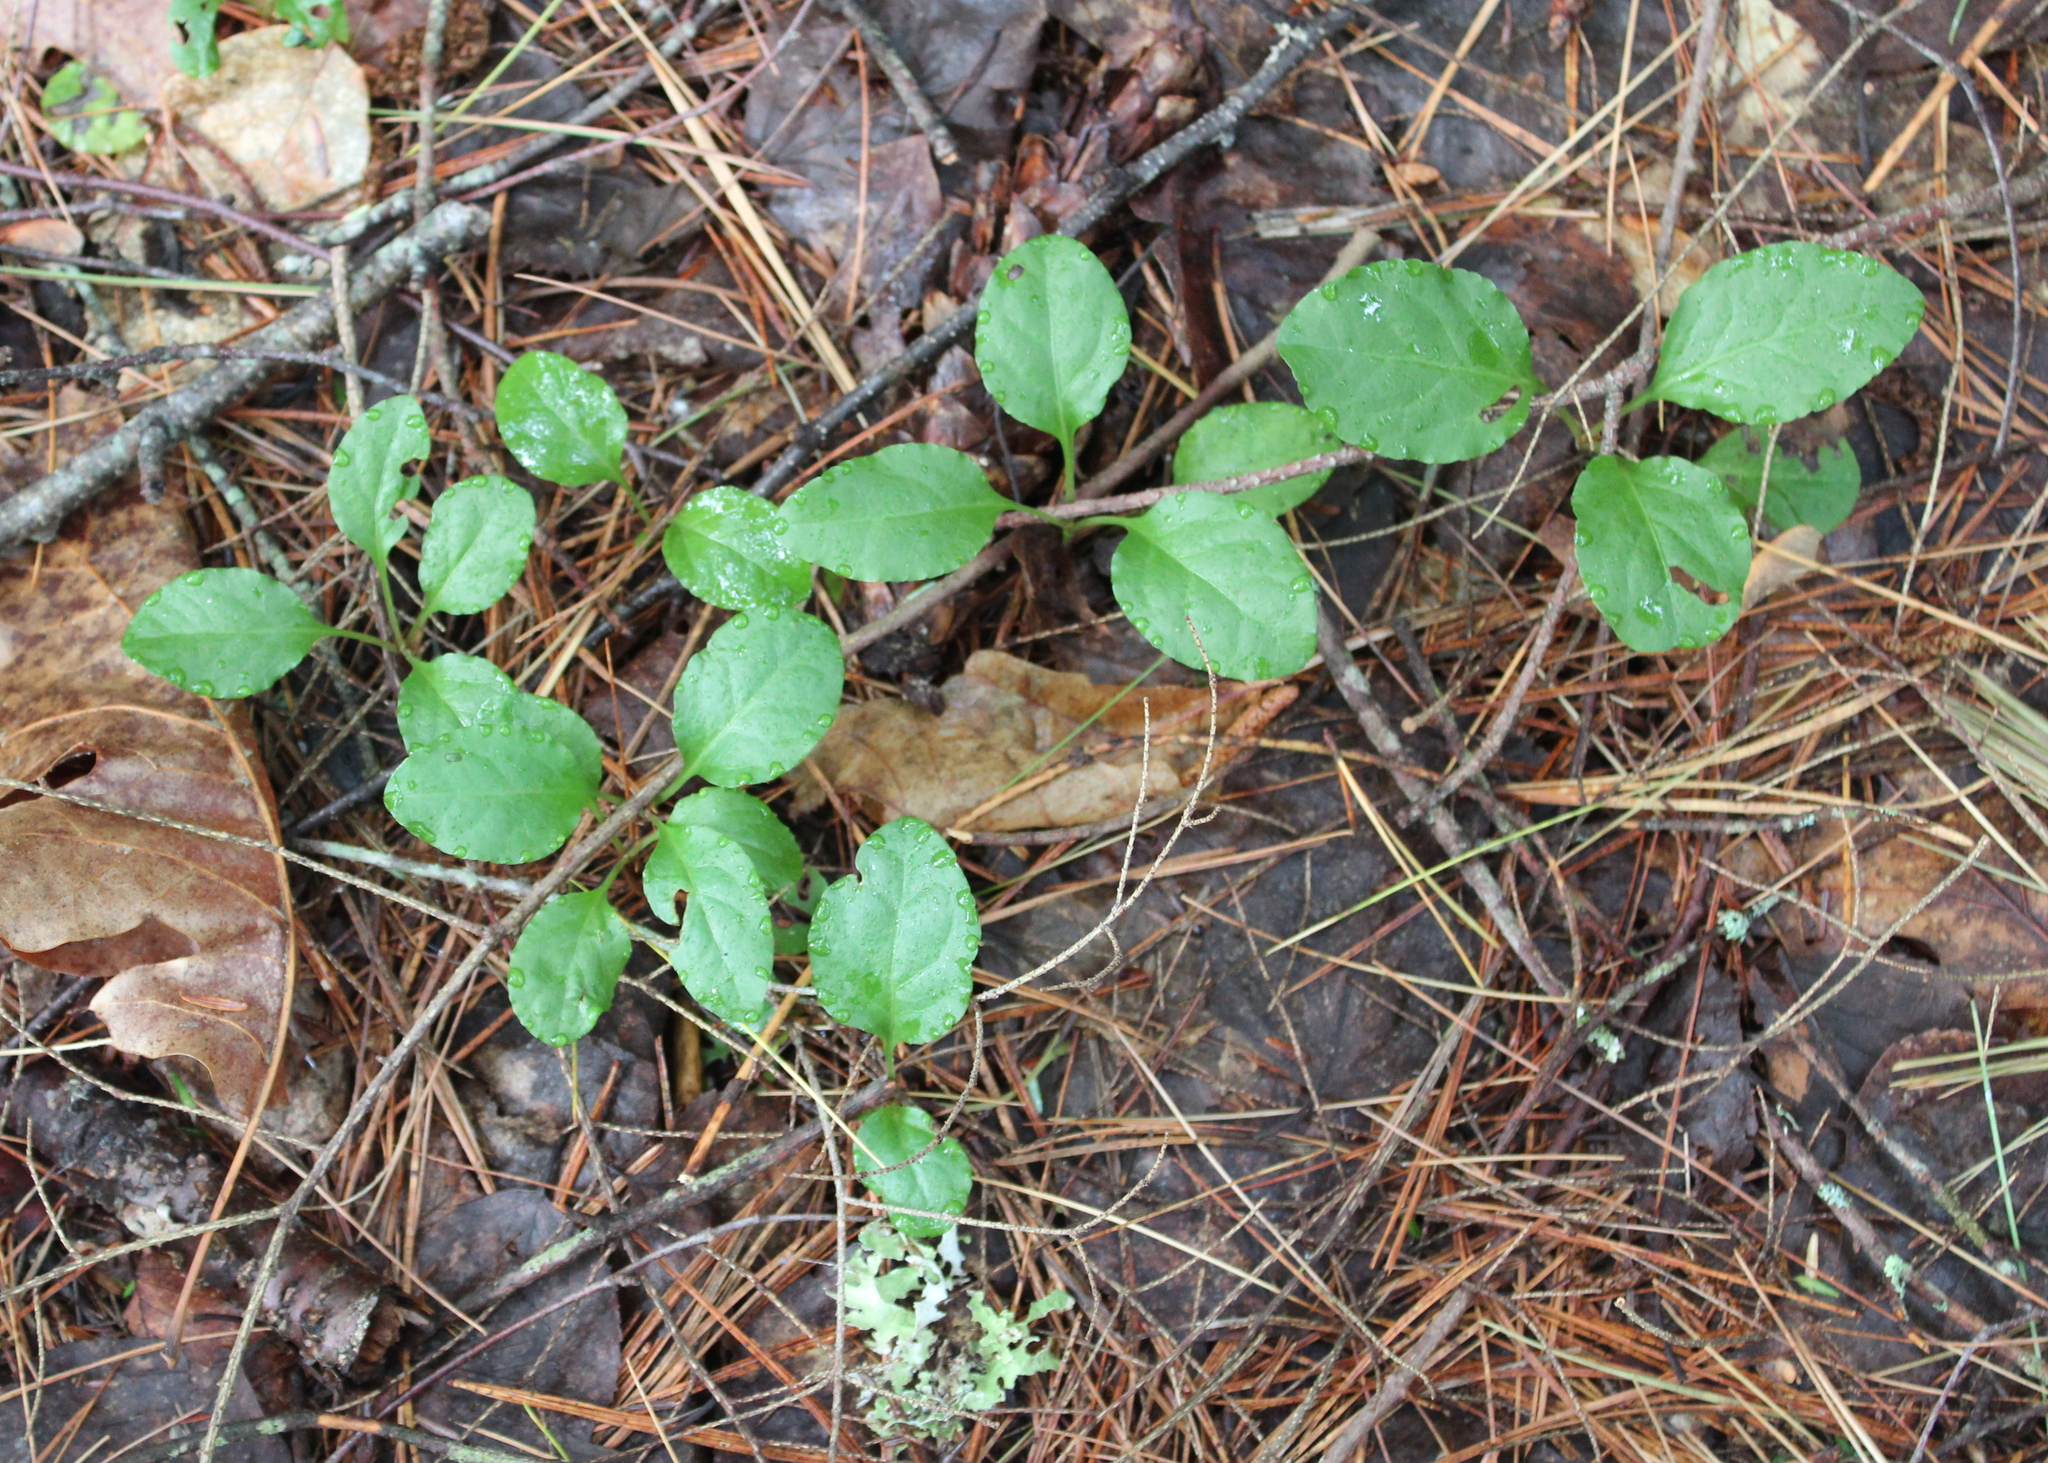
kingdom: Plantae
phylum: Tracheophyta
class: Magnoliopsida
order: Ericales
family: Ericaceae
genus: Pyrola
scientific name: Pyrola elliptica
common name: Shinleaf
